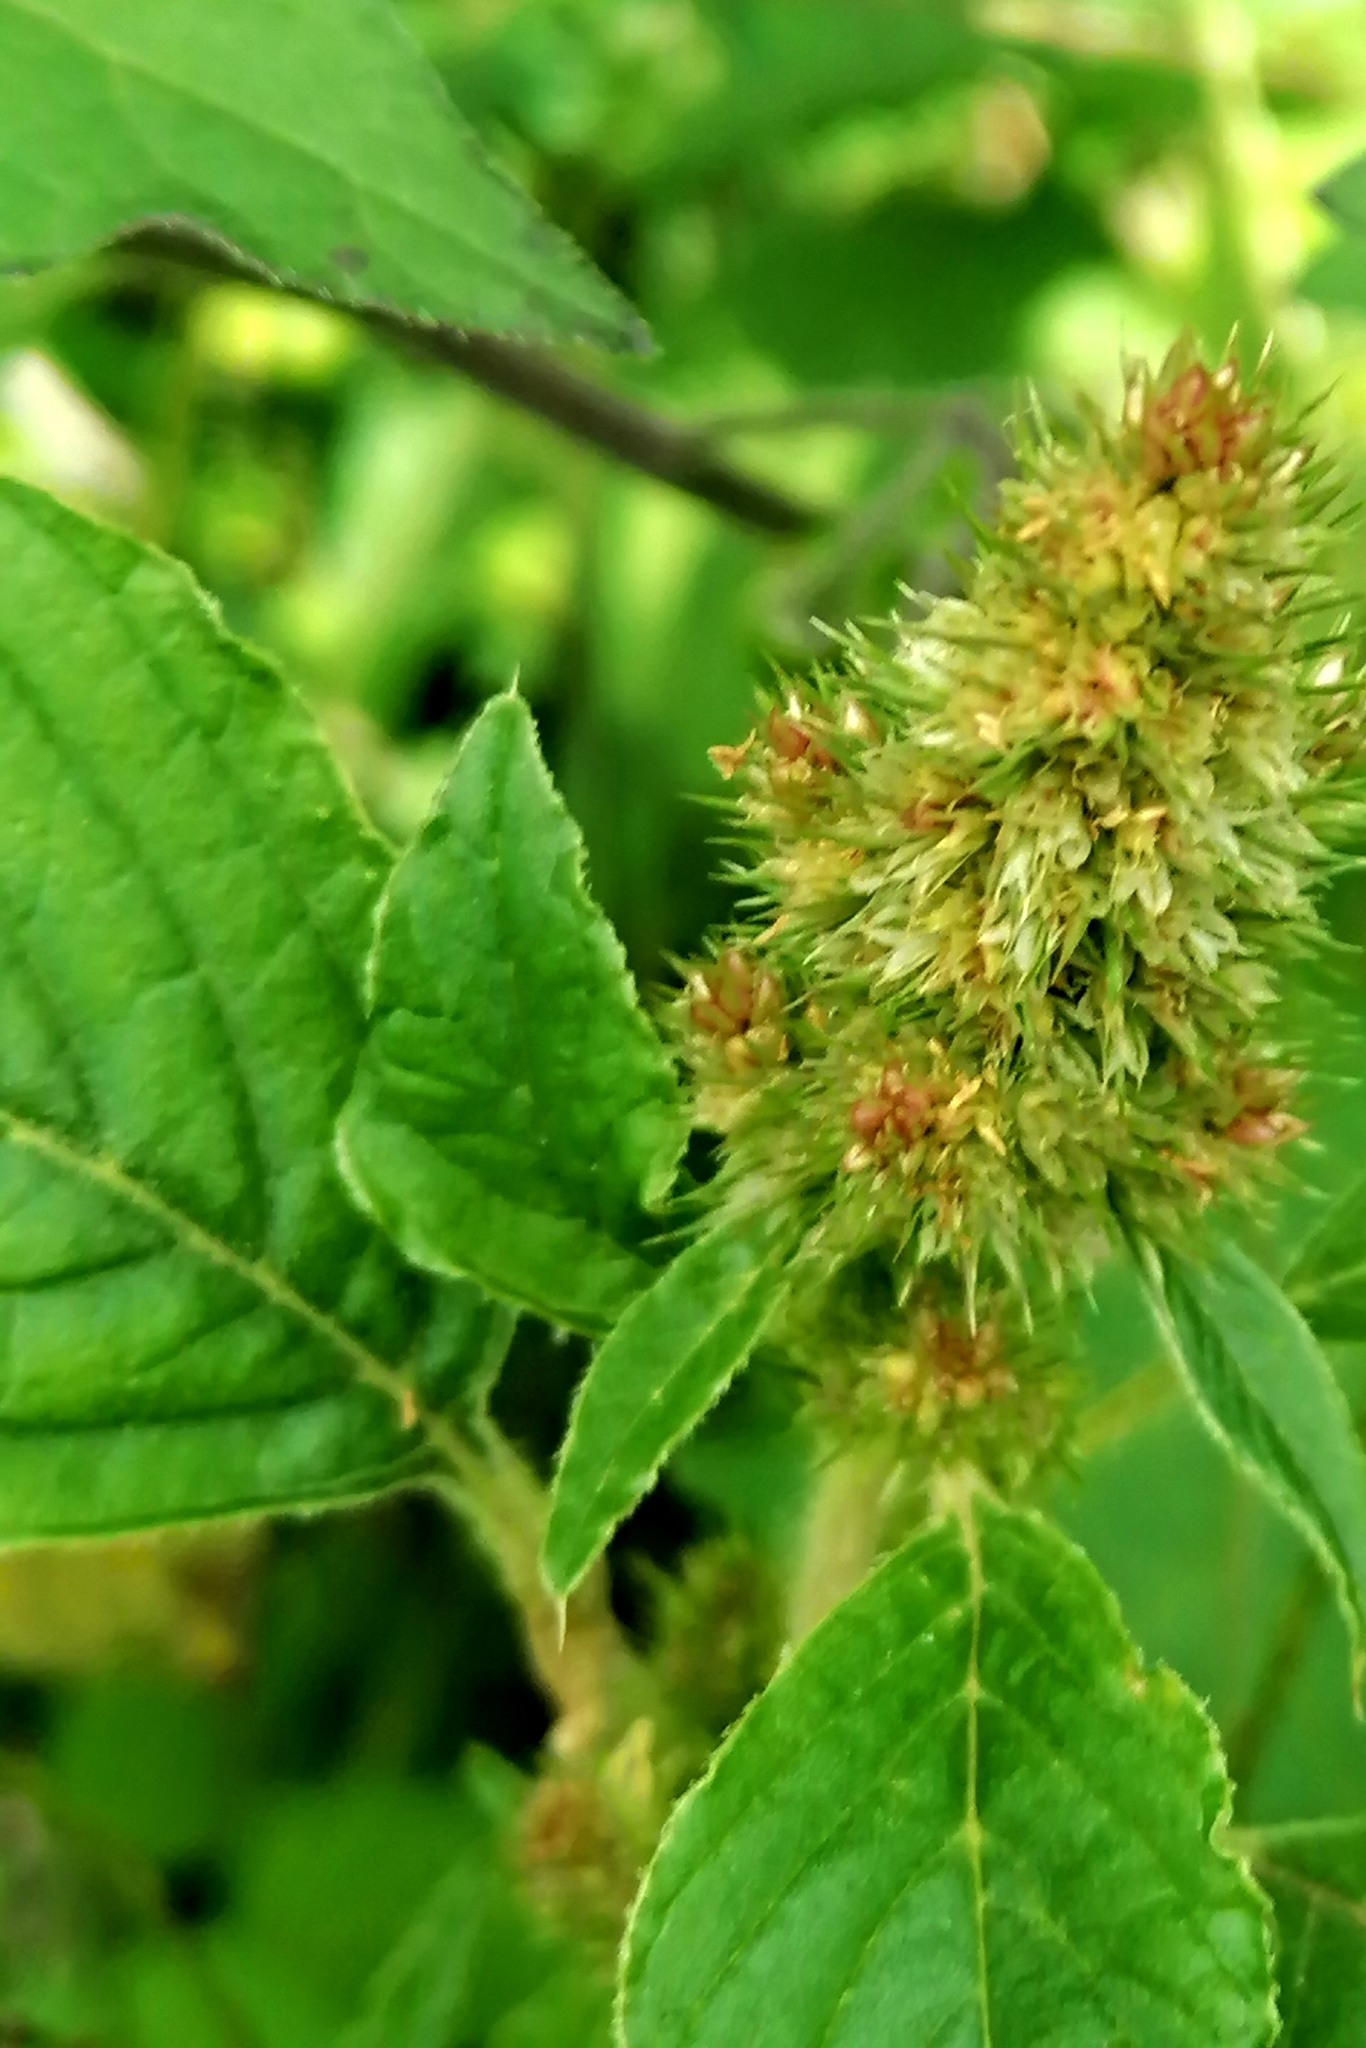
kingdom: Plantae
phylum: Tracheophyta
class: Magnoliopsida
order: Caryophyllales
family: Amaranthaceae
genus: Amaranthus
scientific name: Amaranthus retroflexus
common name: Redroot amaranth
